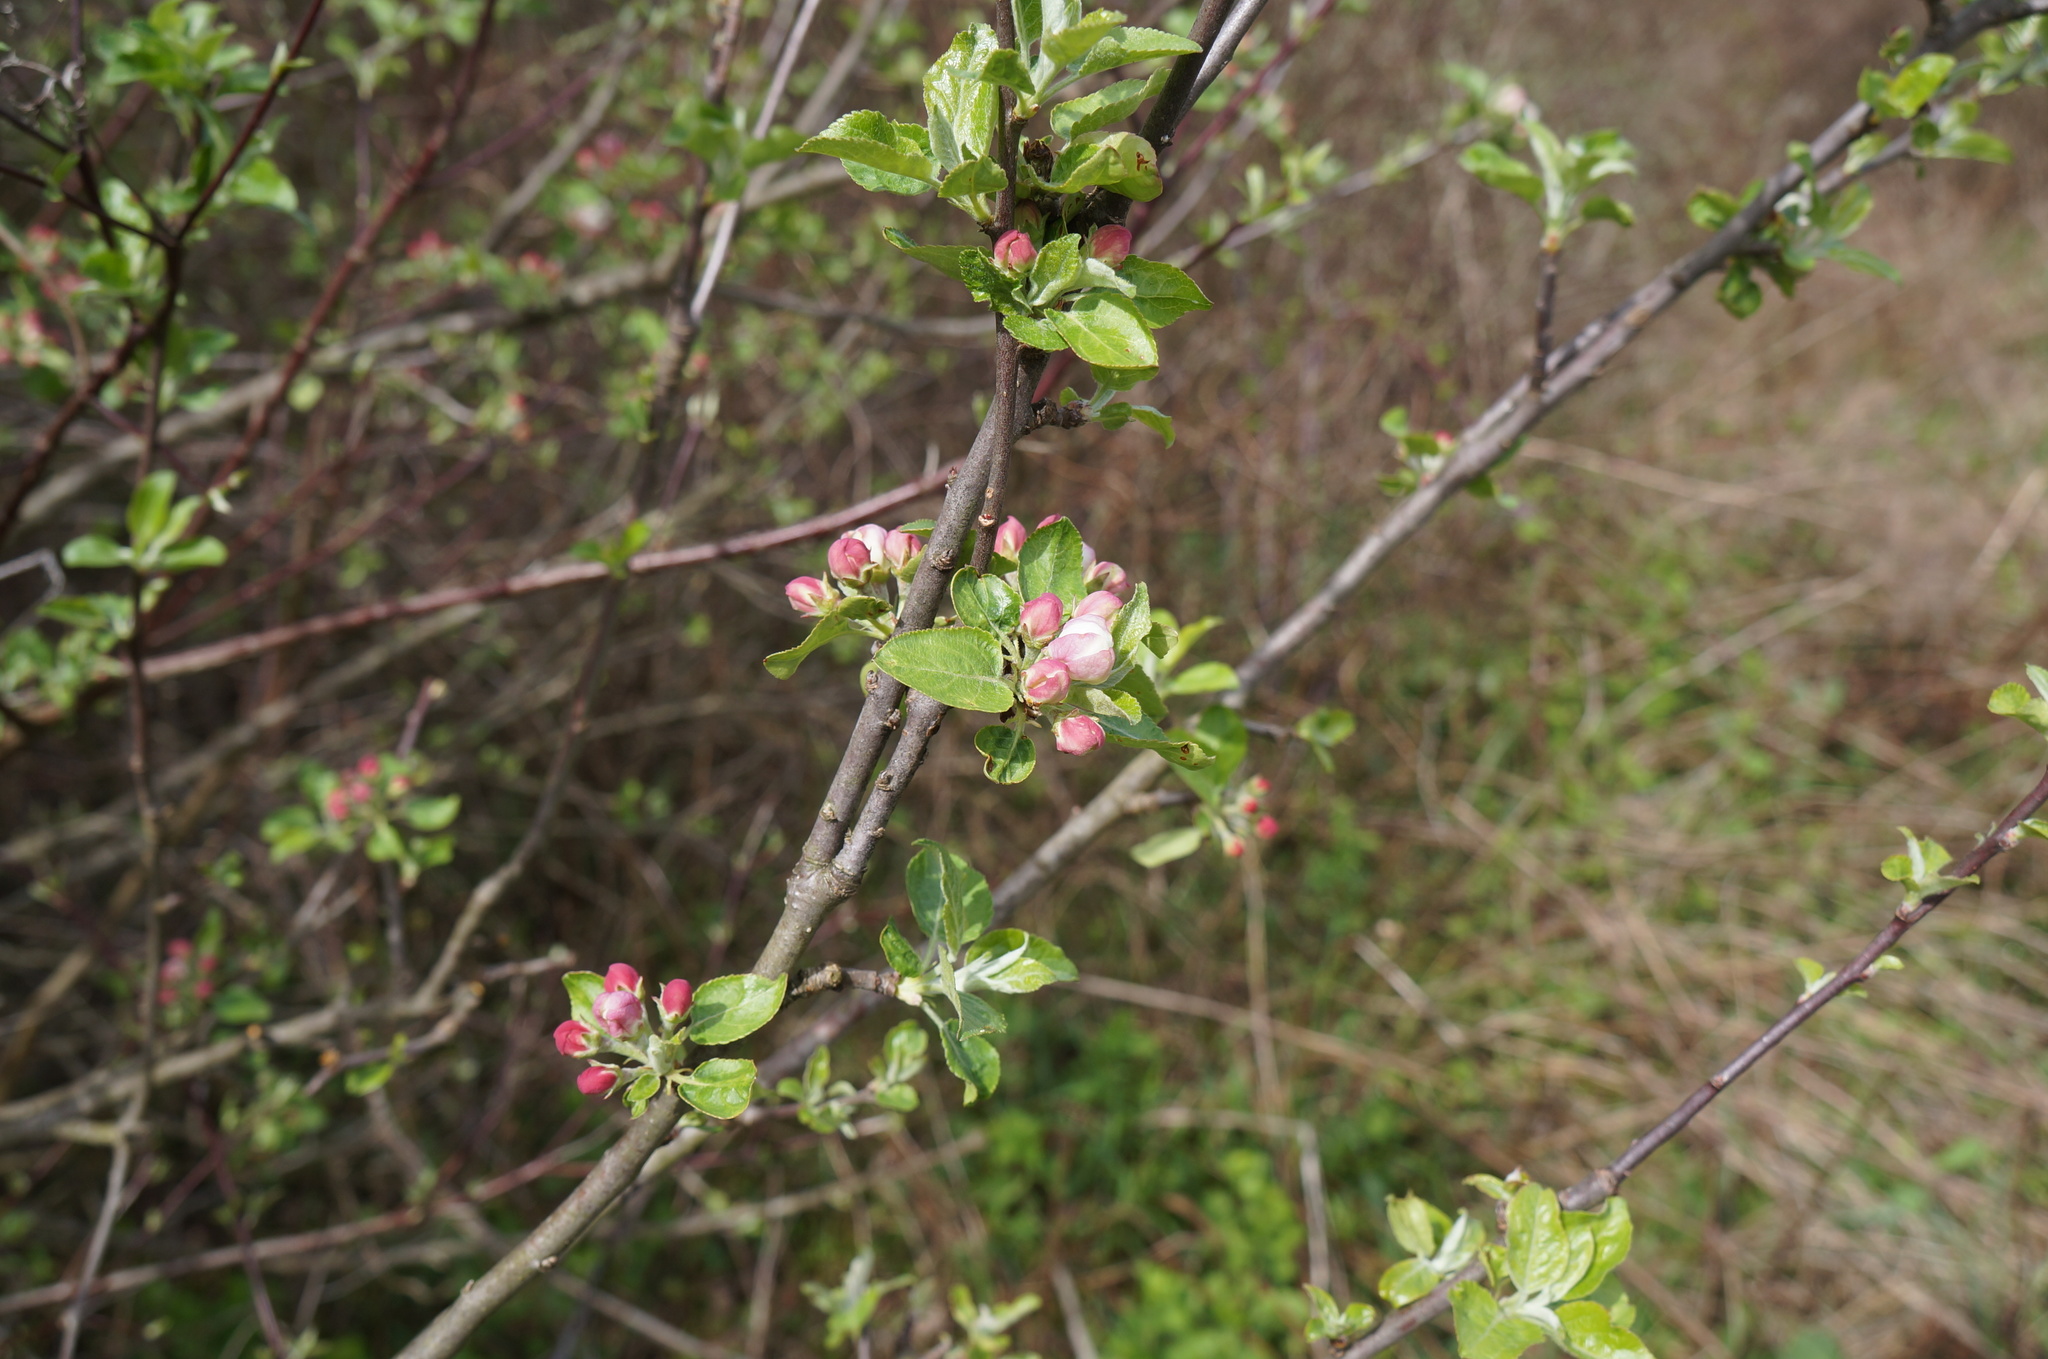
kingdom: Plantae
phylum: Tracheophyta
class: Magnoliopsida
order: Rosales
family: Rosaceae
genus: Malus
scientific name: Malus domestica
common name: Apple
